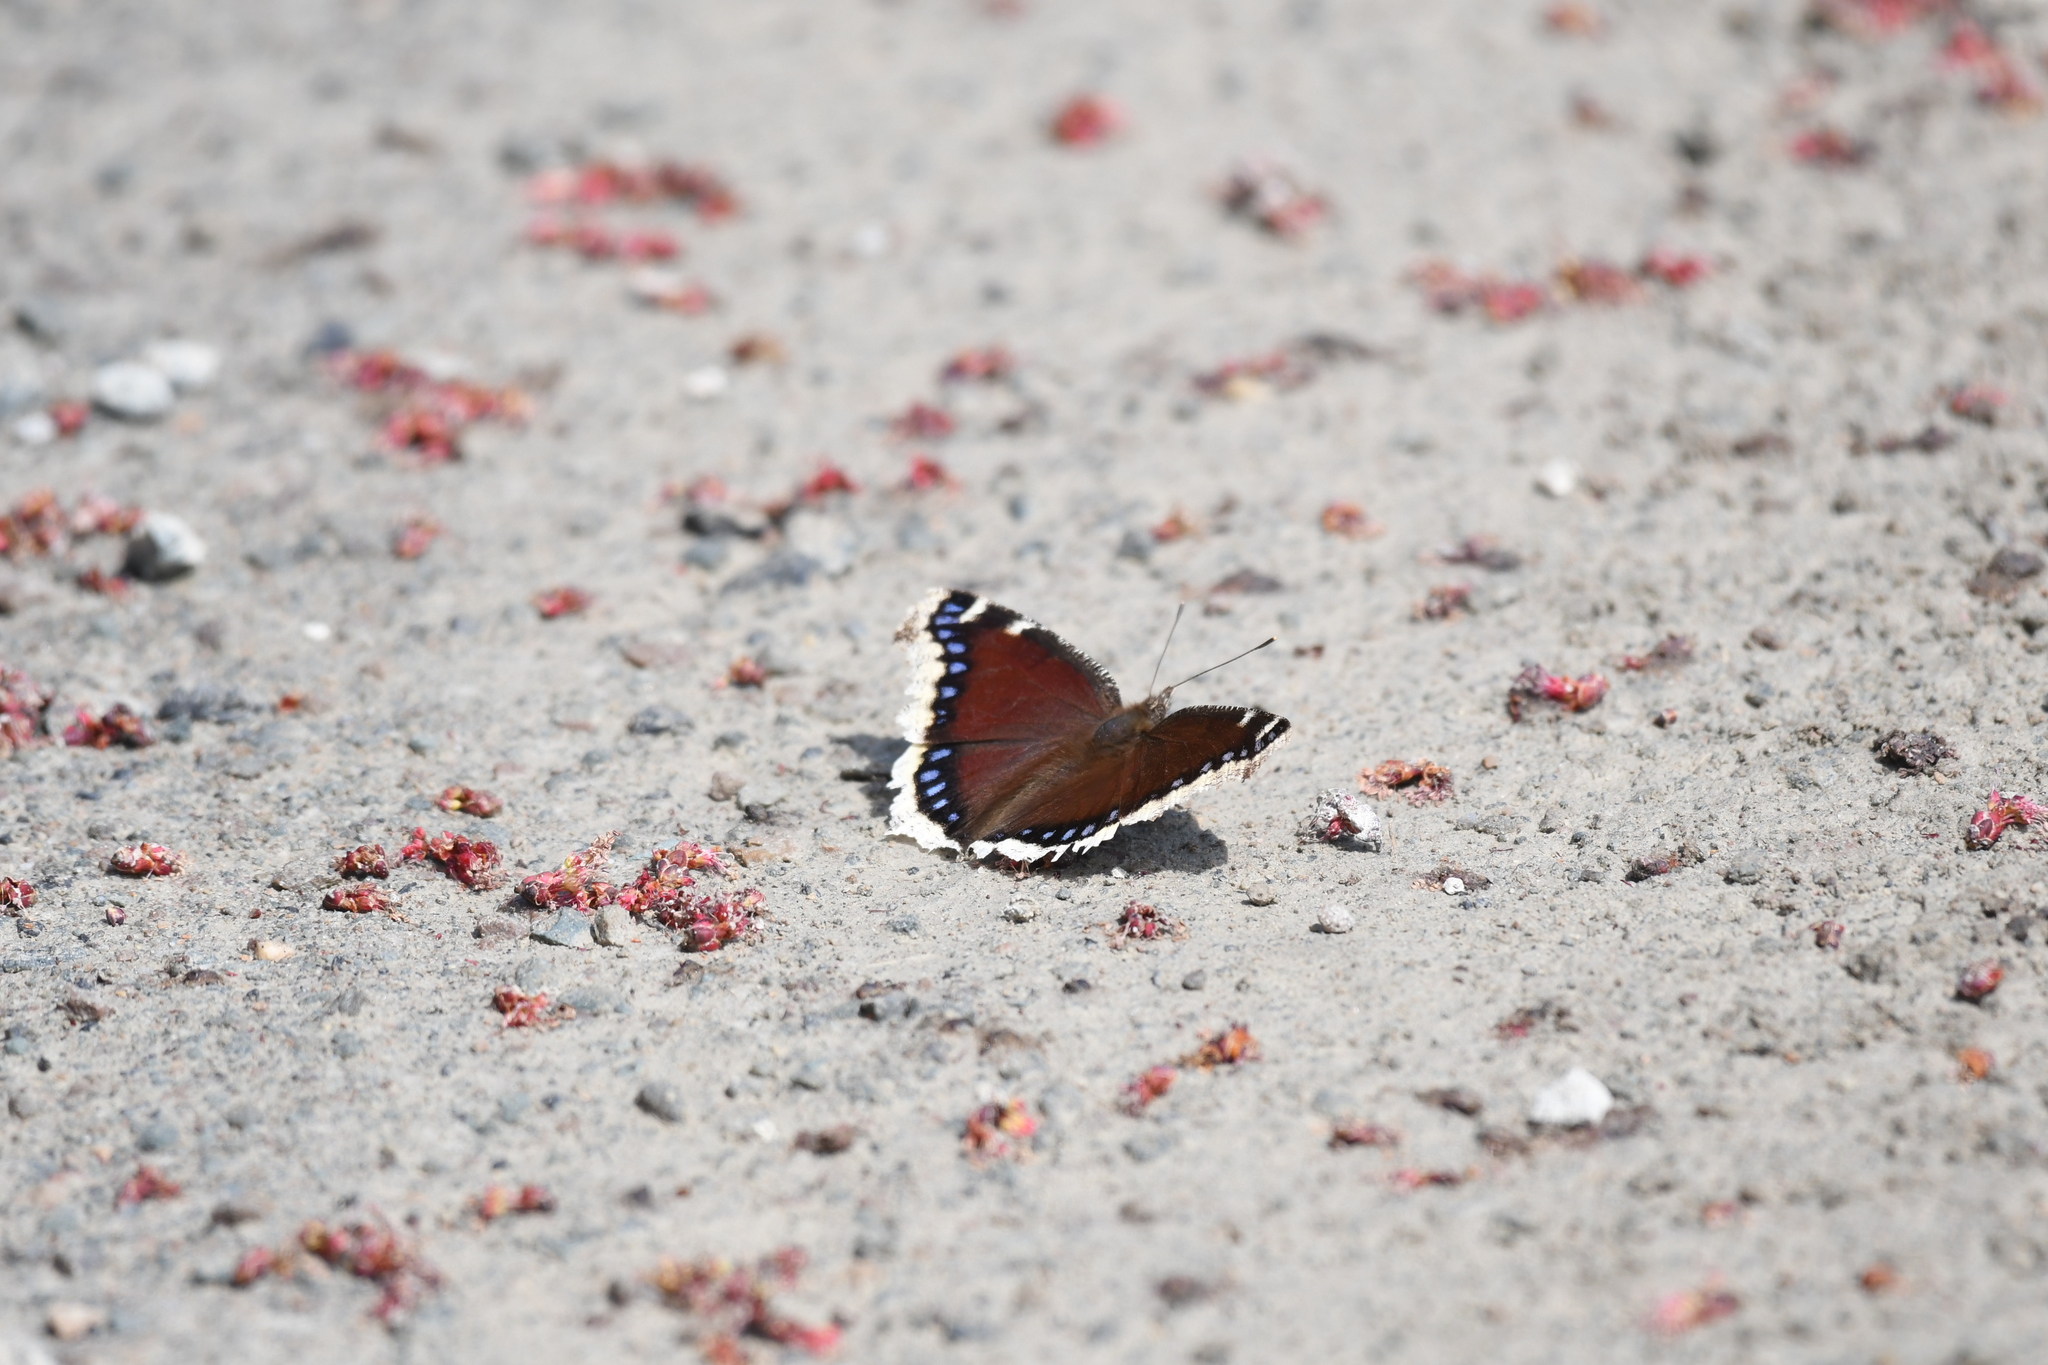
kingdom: Animalia
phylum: Arthropoda
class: Insecta
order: Lepidoptera
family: Nymphalidae
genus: Nymphalis
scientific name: Nymphalis antiopa
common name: Camberwell beauty
